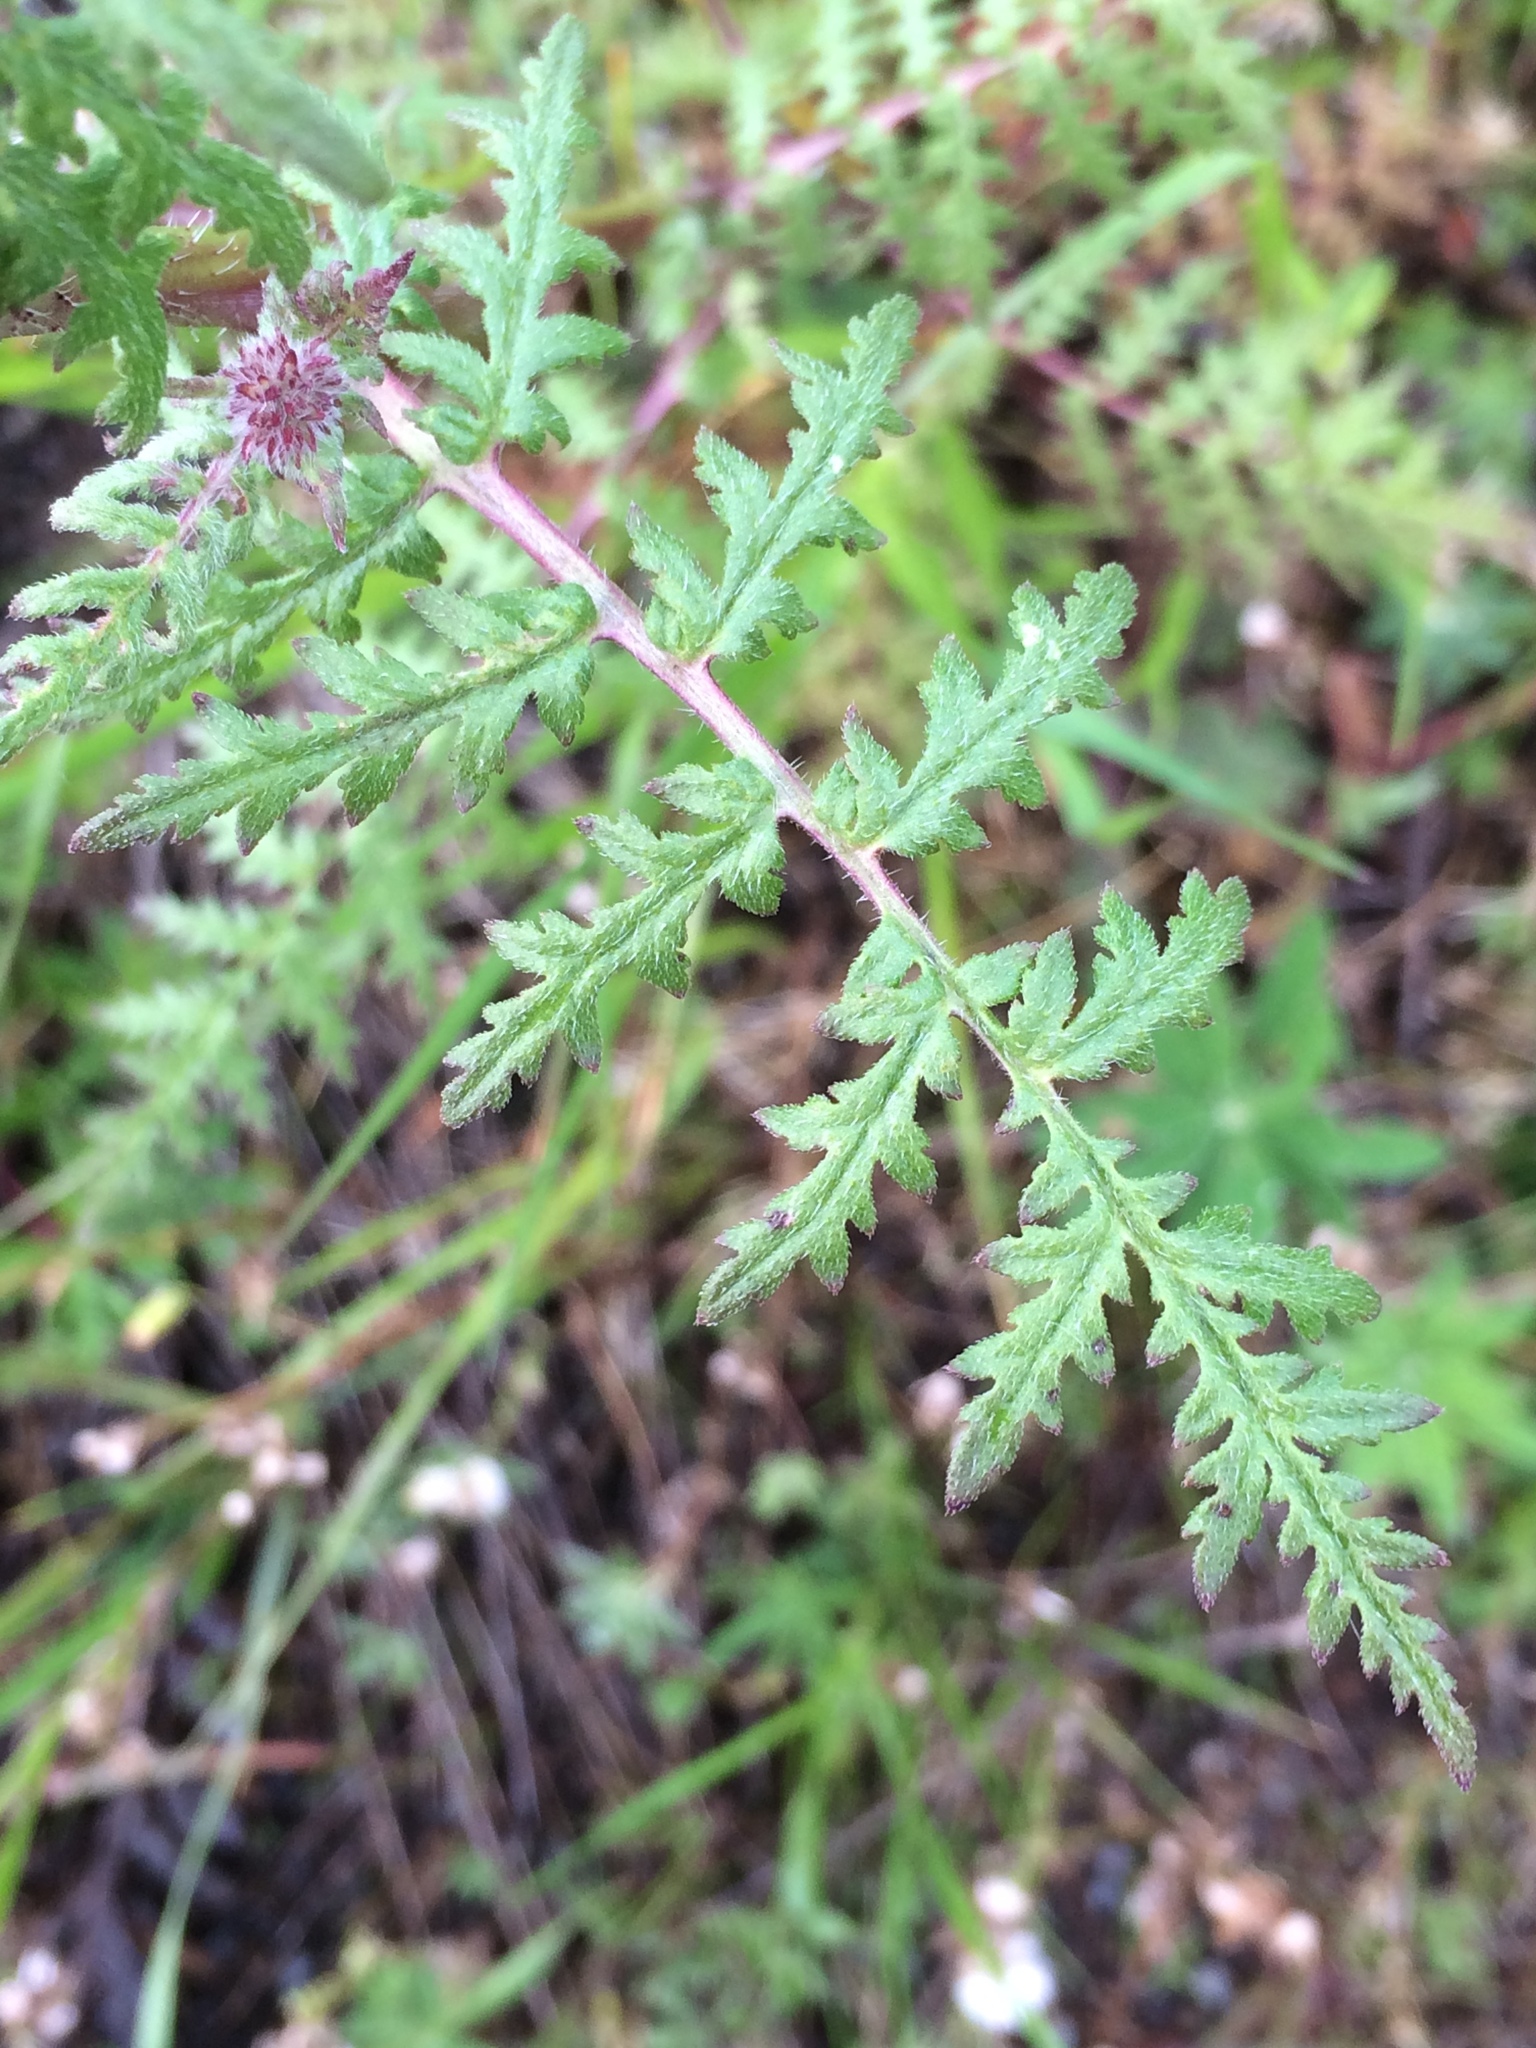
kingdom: Plantae
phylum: Tracheophyta
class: Magnoliopsida
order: Boraginales
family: Hydrophyllaceae
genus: Phacelia
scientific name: Phacelia tanacetifolia
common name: Phacelia
